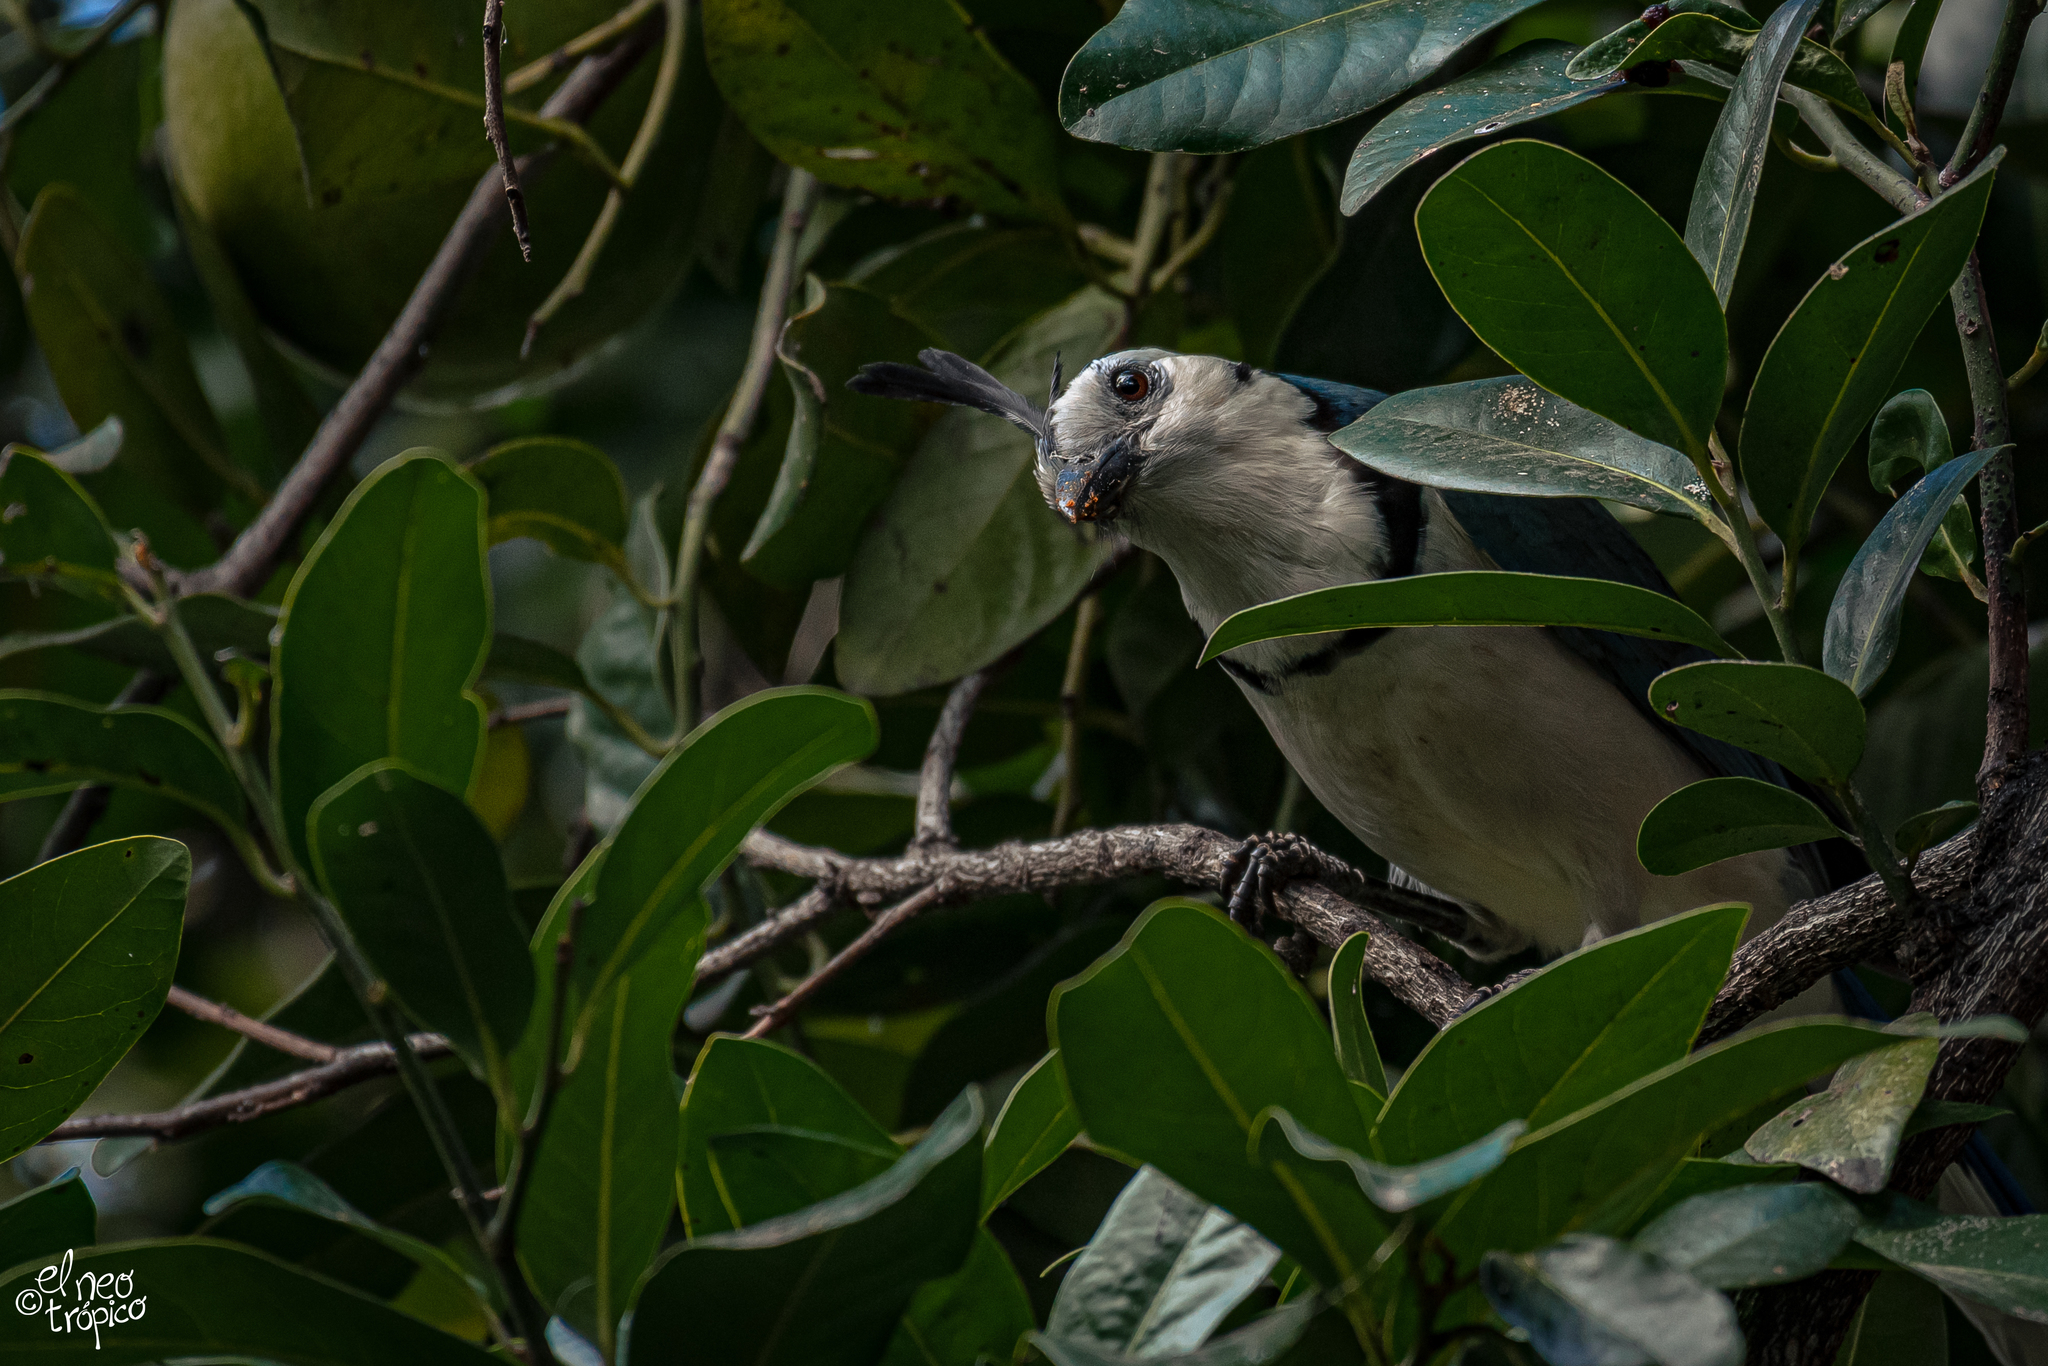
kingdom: Animalia
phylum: Chordata
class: Aves
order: Passeriformes
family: Corvidae
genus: Calocitta
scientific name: Calocitta formosa
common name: White-throated magpie-jay
